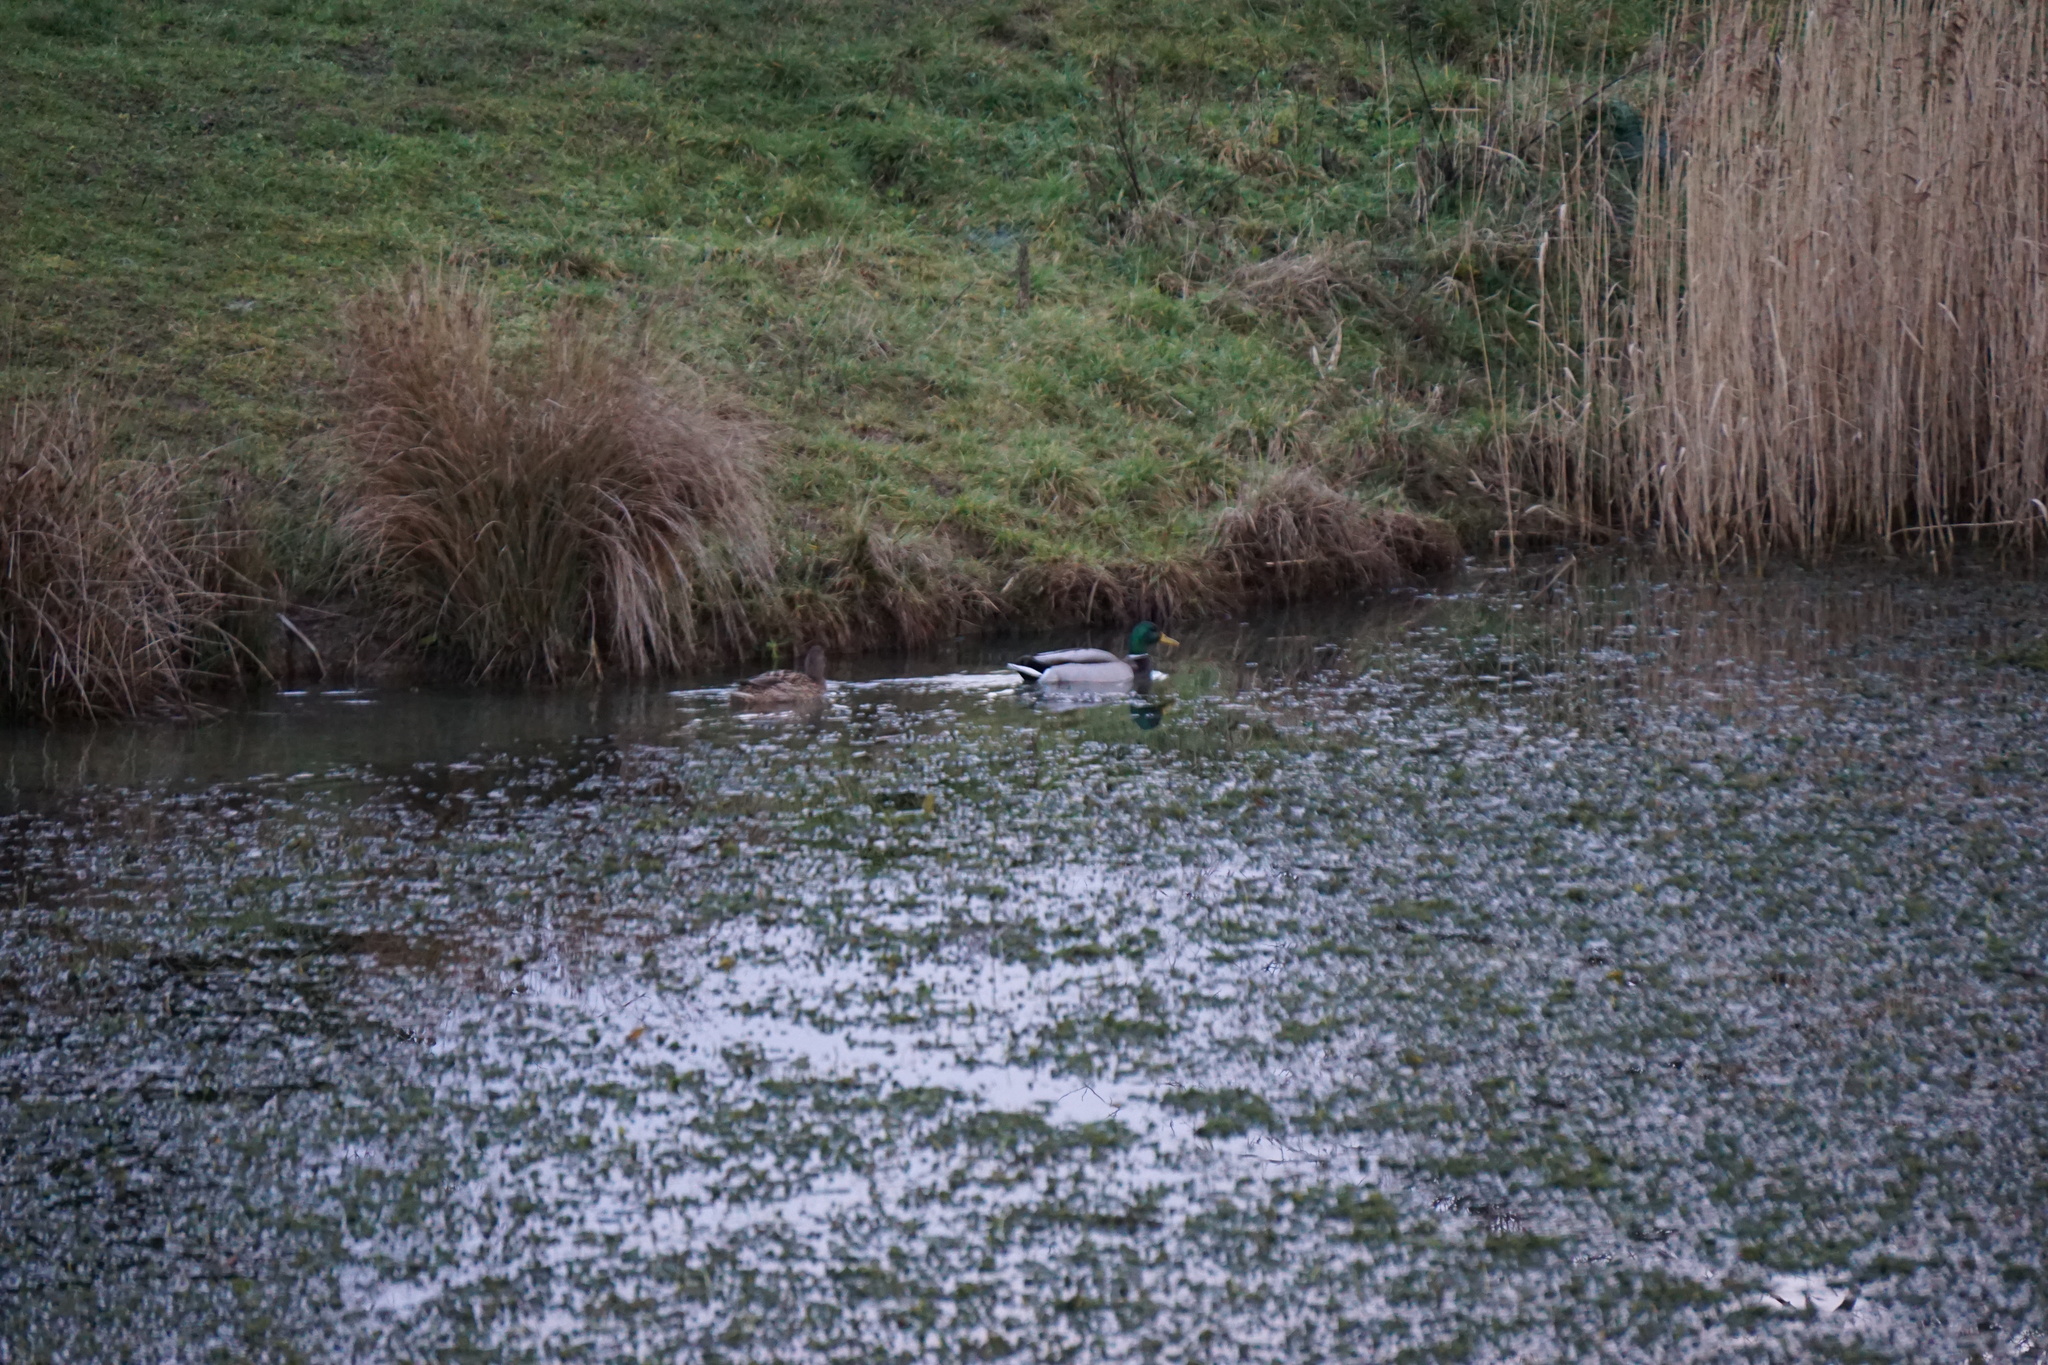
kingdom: Animalia
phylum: Chordata
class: Aves
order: Anseriformes
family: Anatidae
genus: Anas
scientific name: Anas platyrhynchos
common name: Mallard
